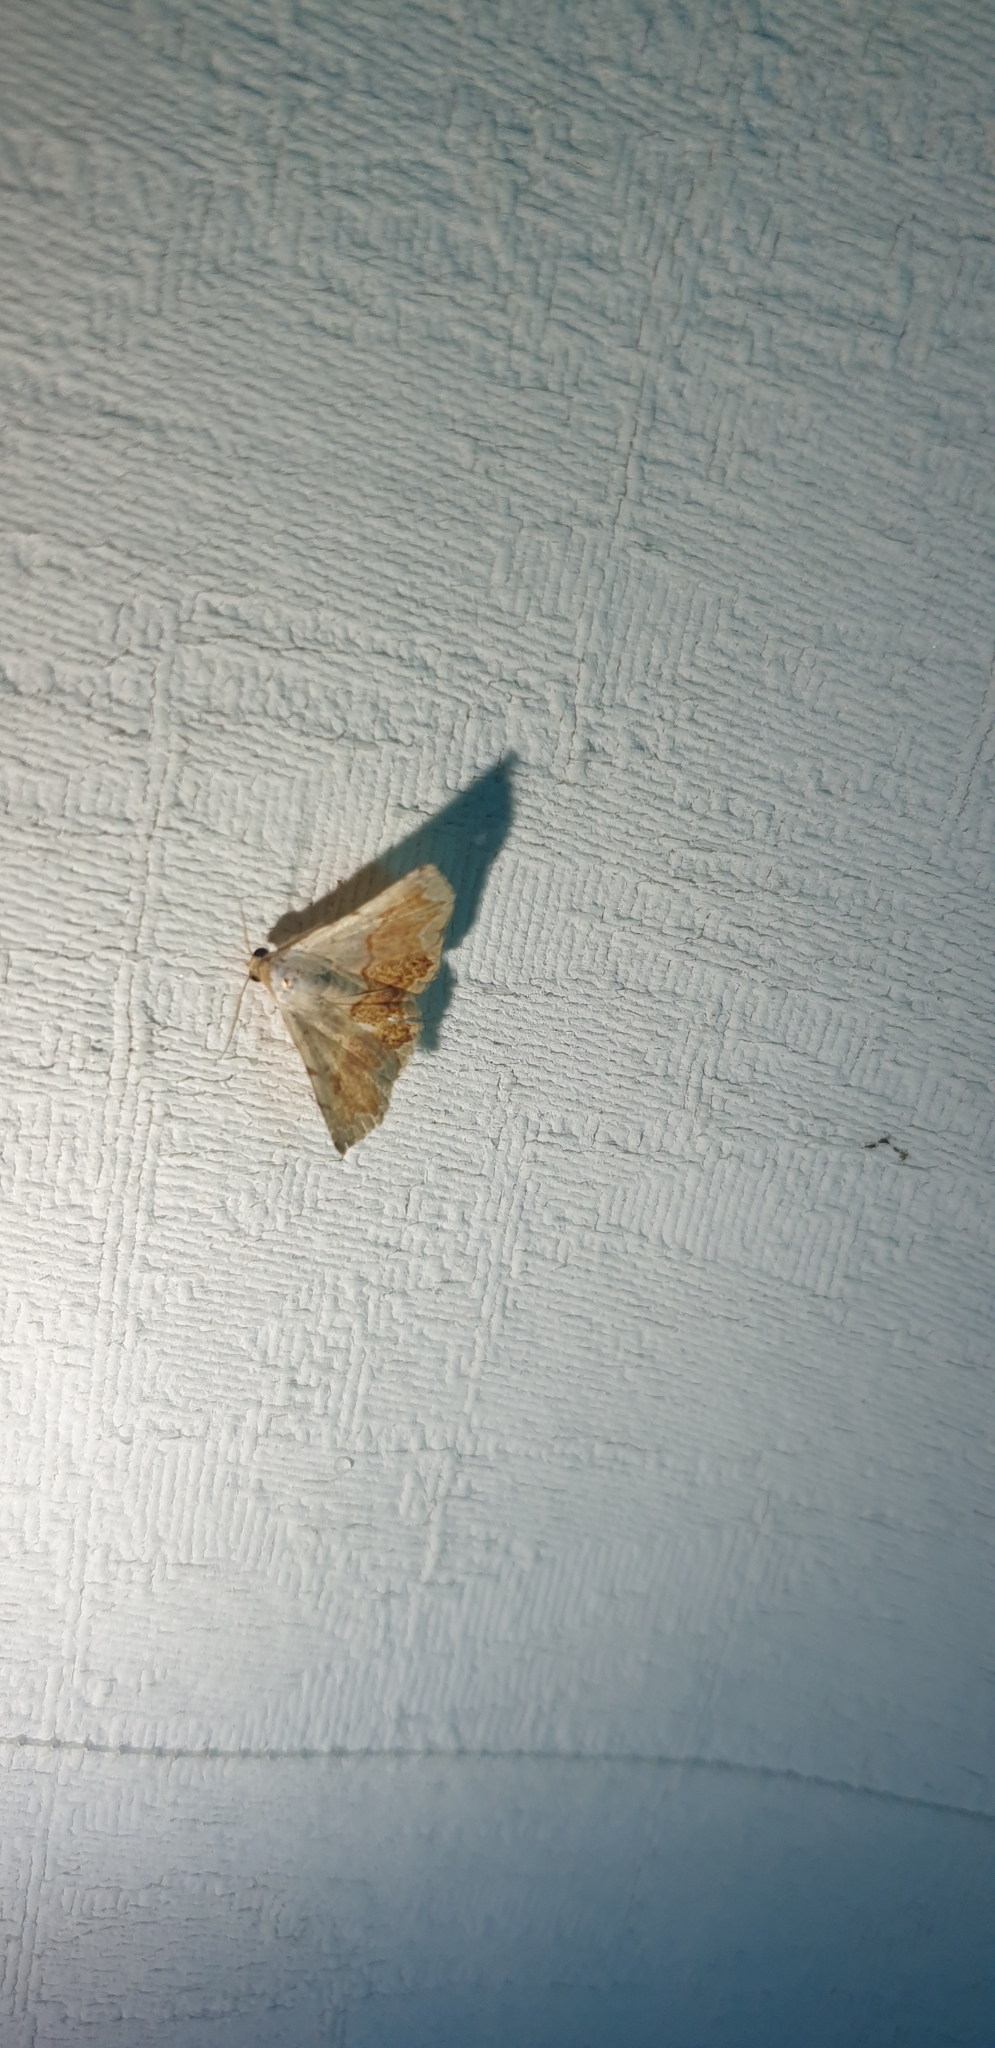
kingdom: Animalia
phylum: Arthropoda
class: Insecta
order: Lepidoptera
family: Noctuidae
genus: Eublemma
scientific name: Eublemma
